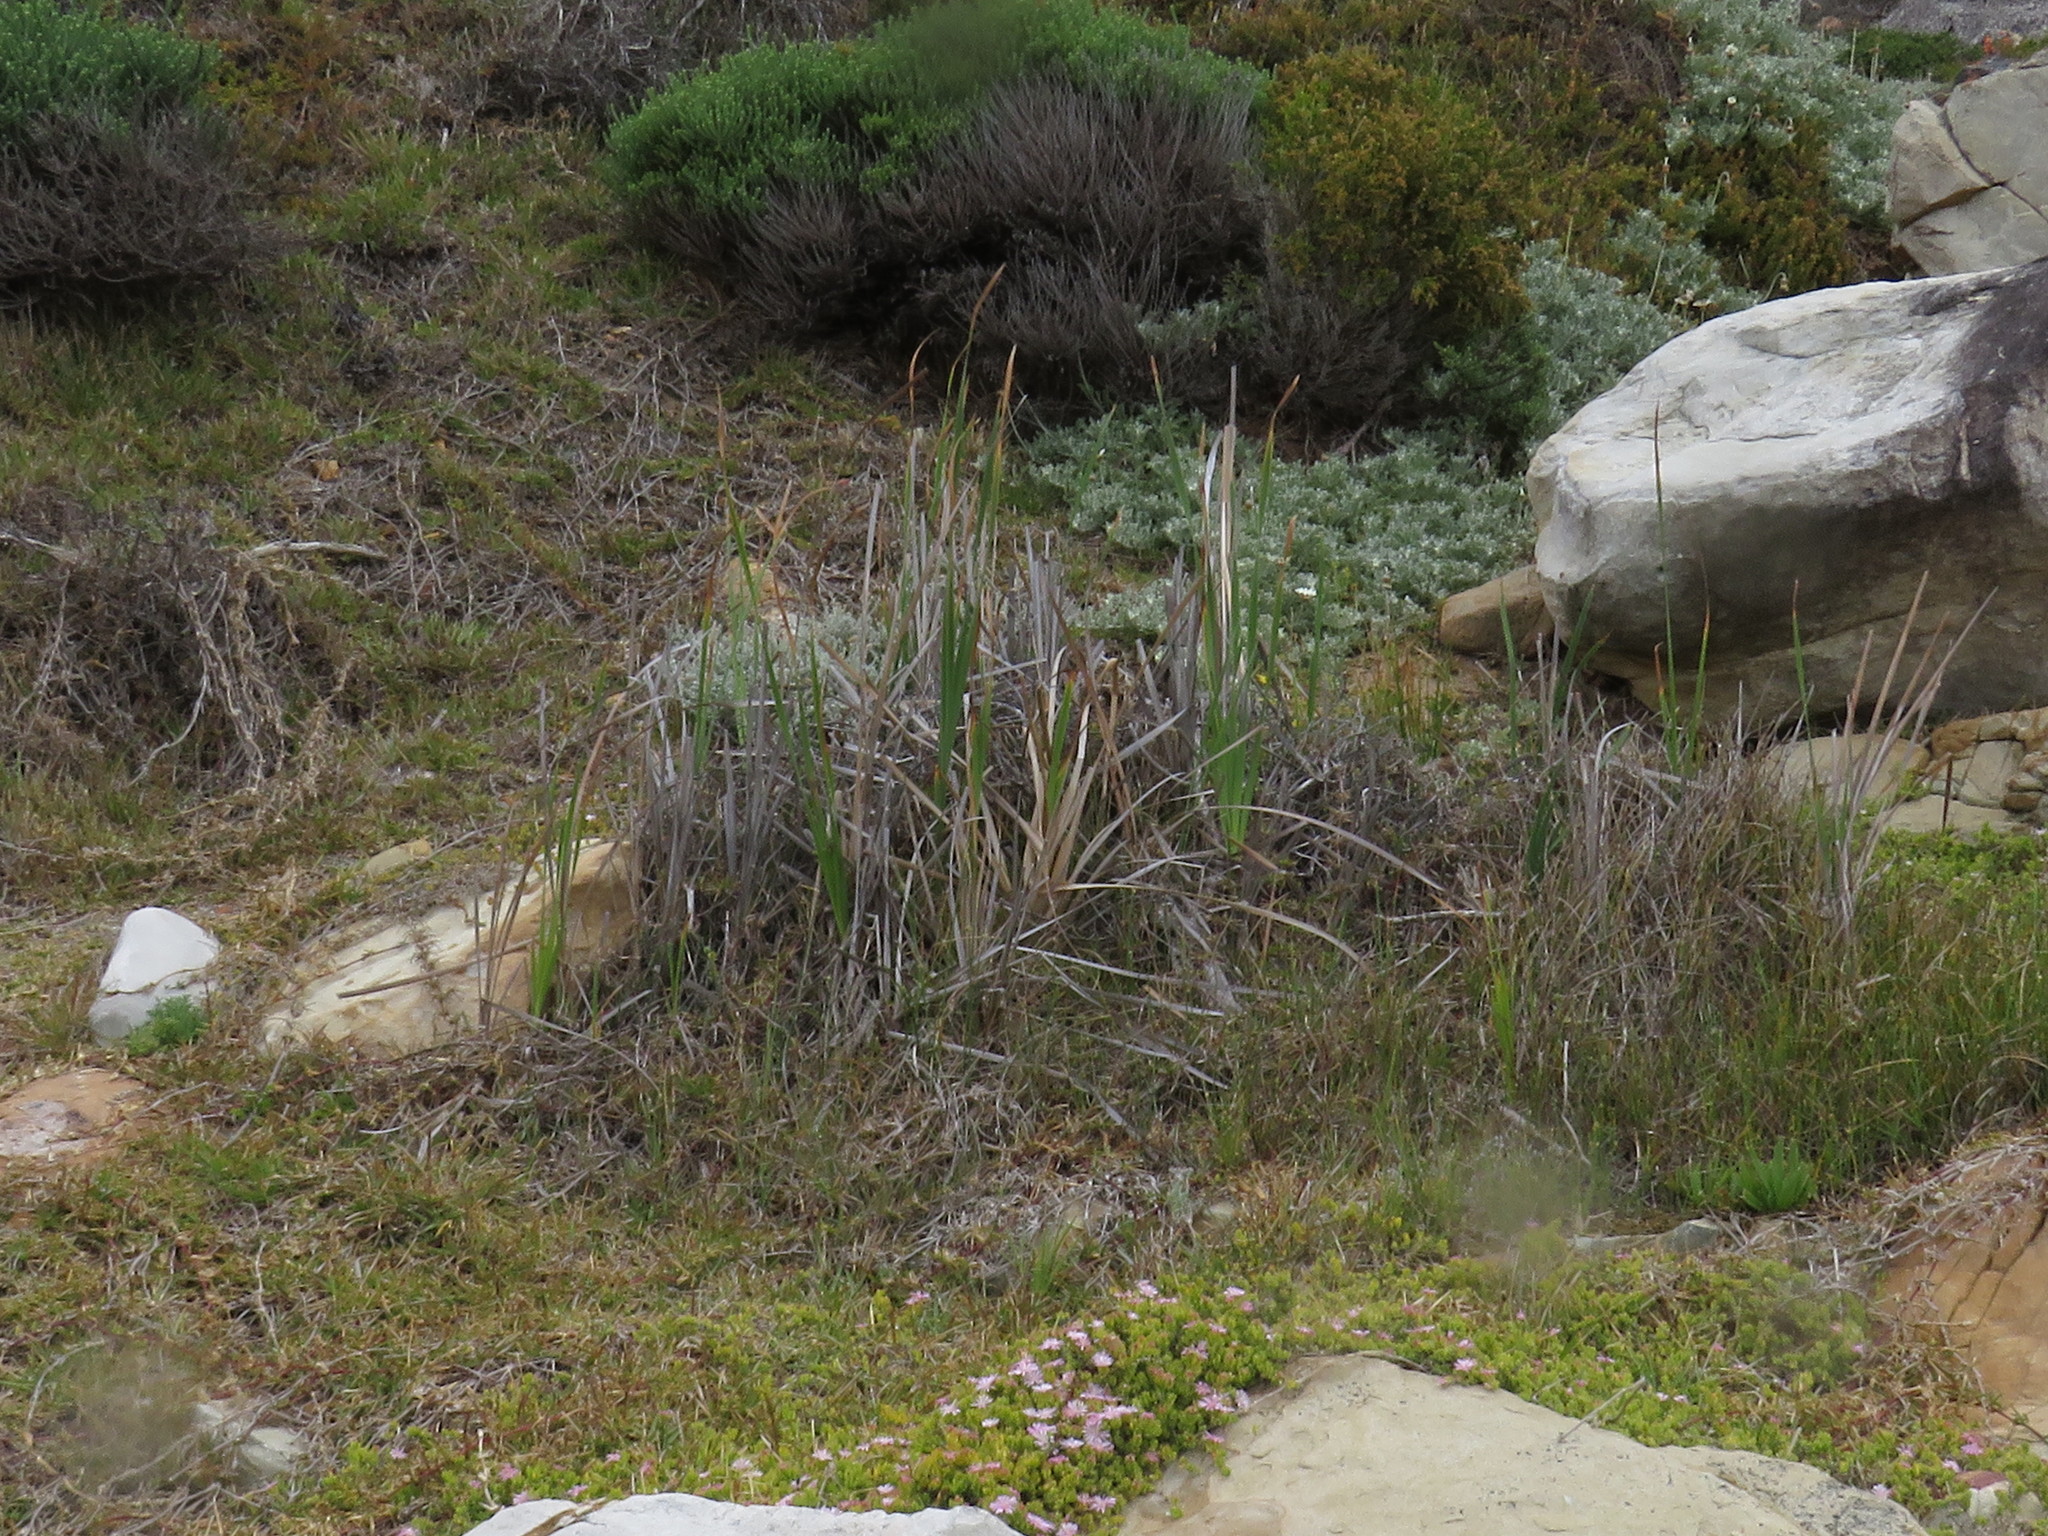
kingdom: Plantae
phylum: Tracheophyta
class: Liliopsida
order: Poales
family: Typhaceae
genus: Typha
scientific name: Typha capensis
